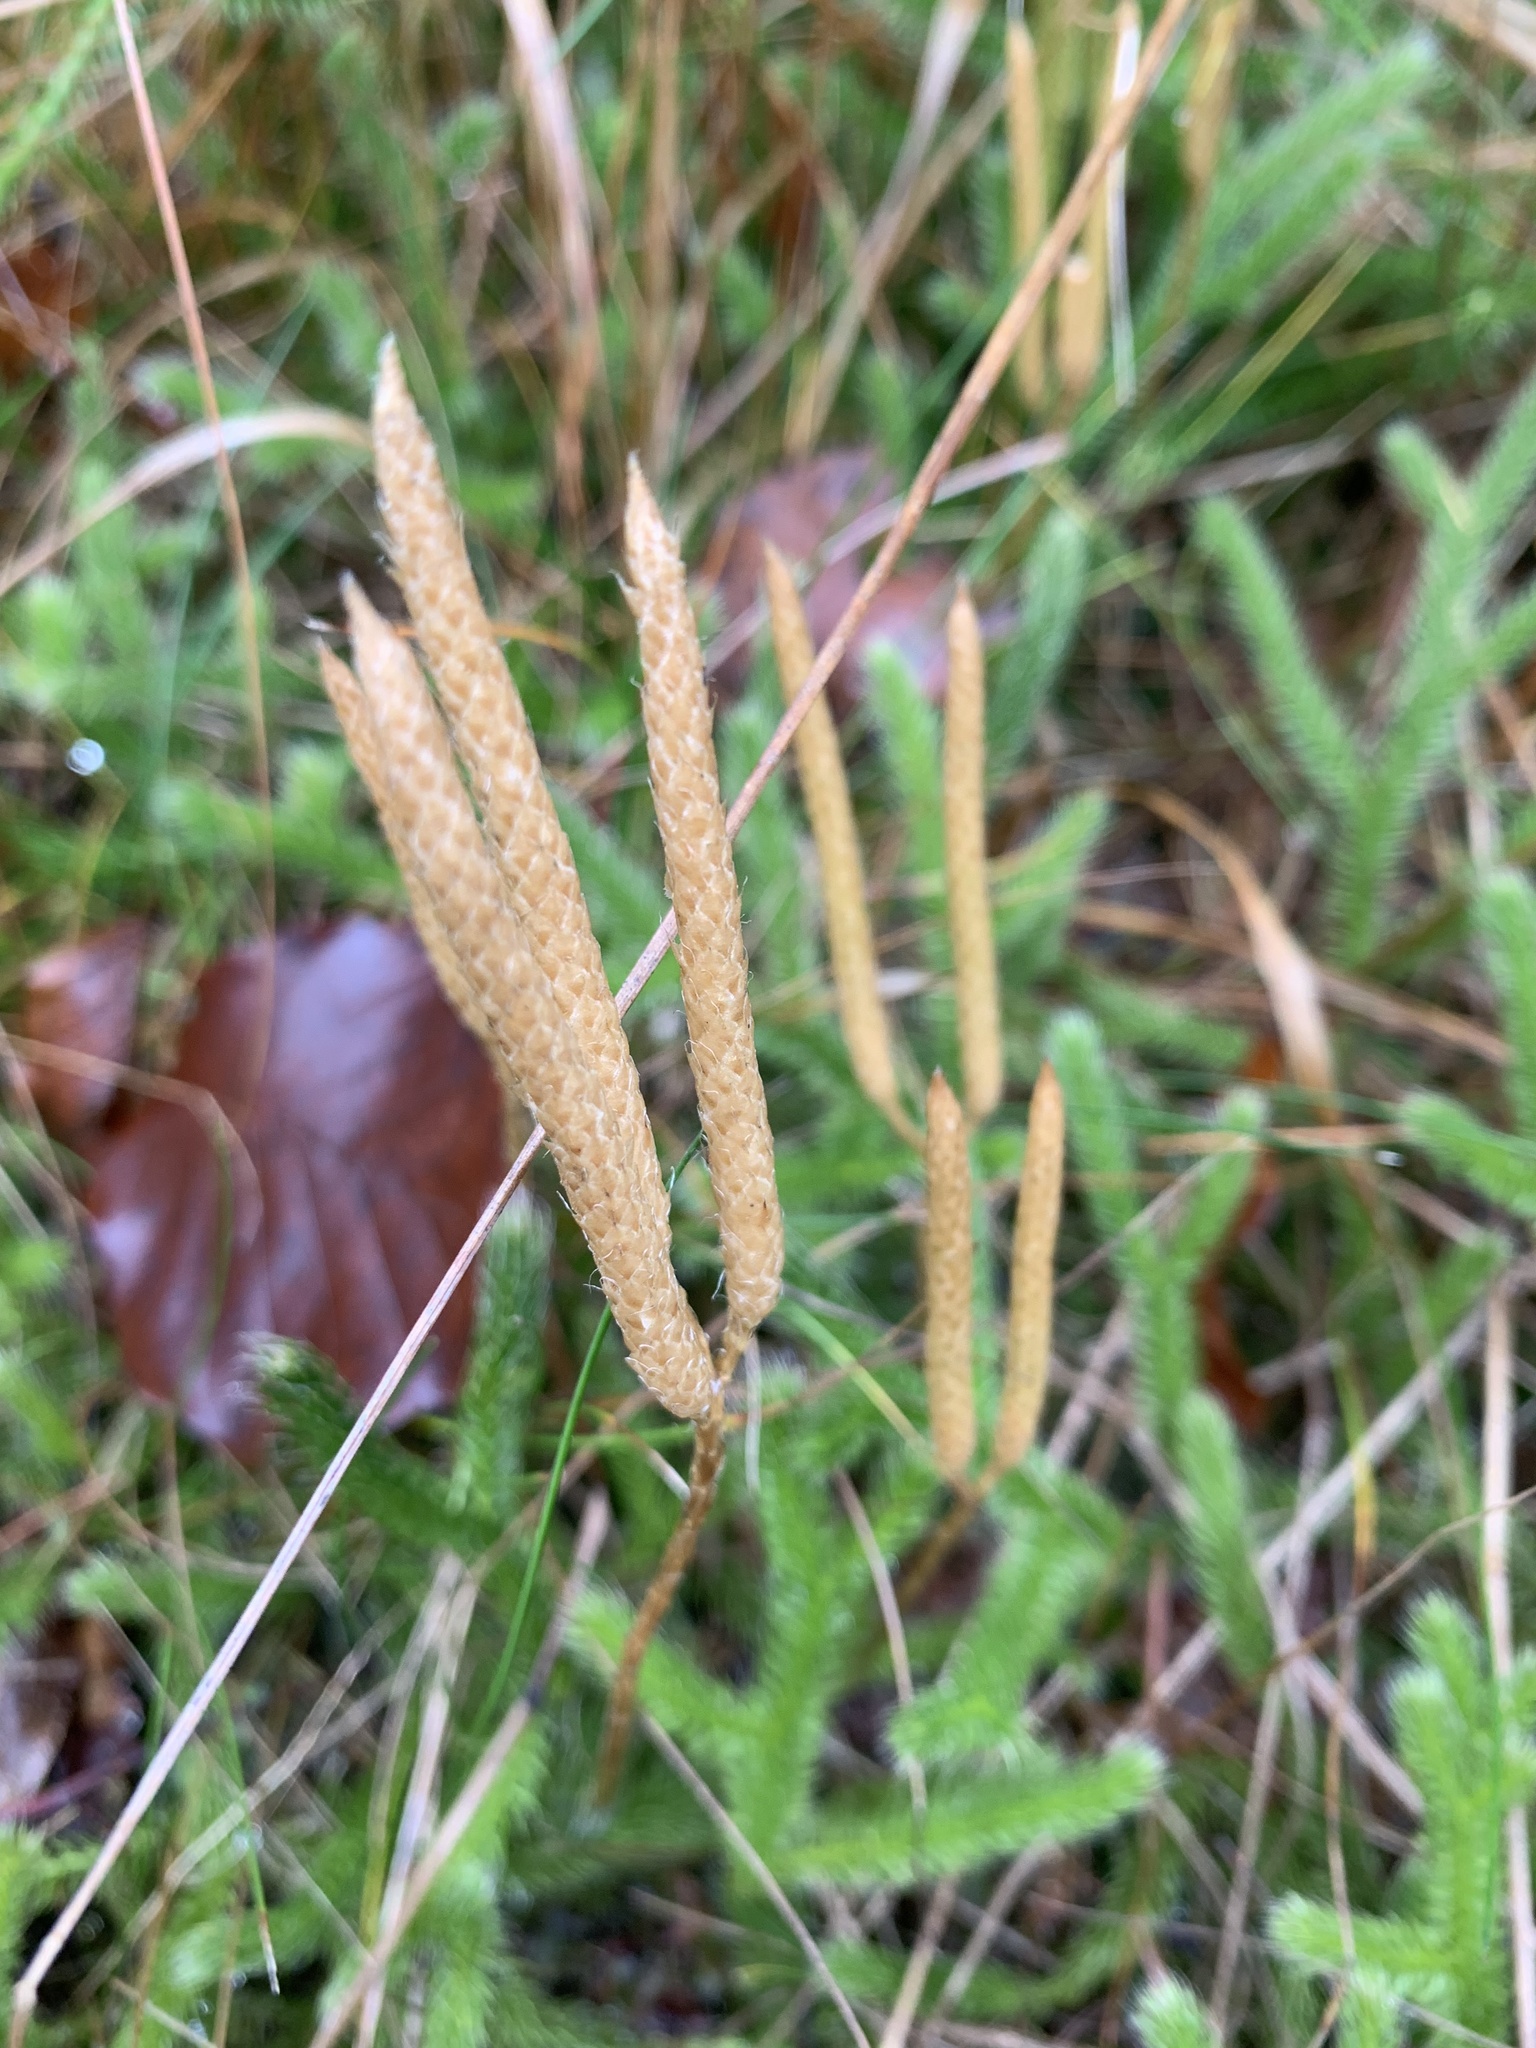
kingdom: Plantae
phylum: Tracheophyta
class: Lycopodiopsida
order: Lycopodiales
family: Lycopodiaceae
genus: Lycopodium
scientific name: Lycopodium clavatum
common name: Stag's-horn clubmoss
